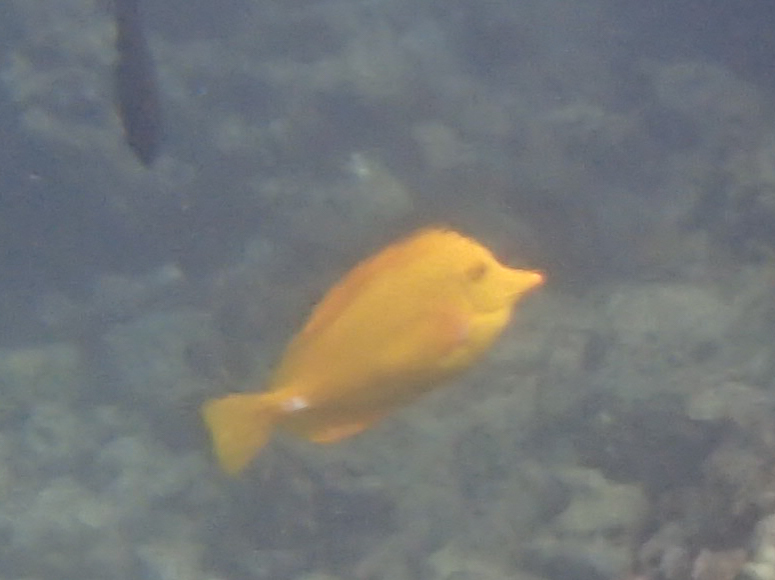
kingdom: Animalia
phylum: Chordata
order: Perciformes
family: Acanthuridae
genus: Zebrasoma
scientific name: Zebrasoma flavescens
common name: Yellow tang
